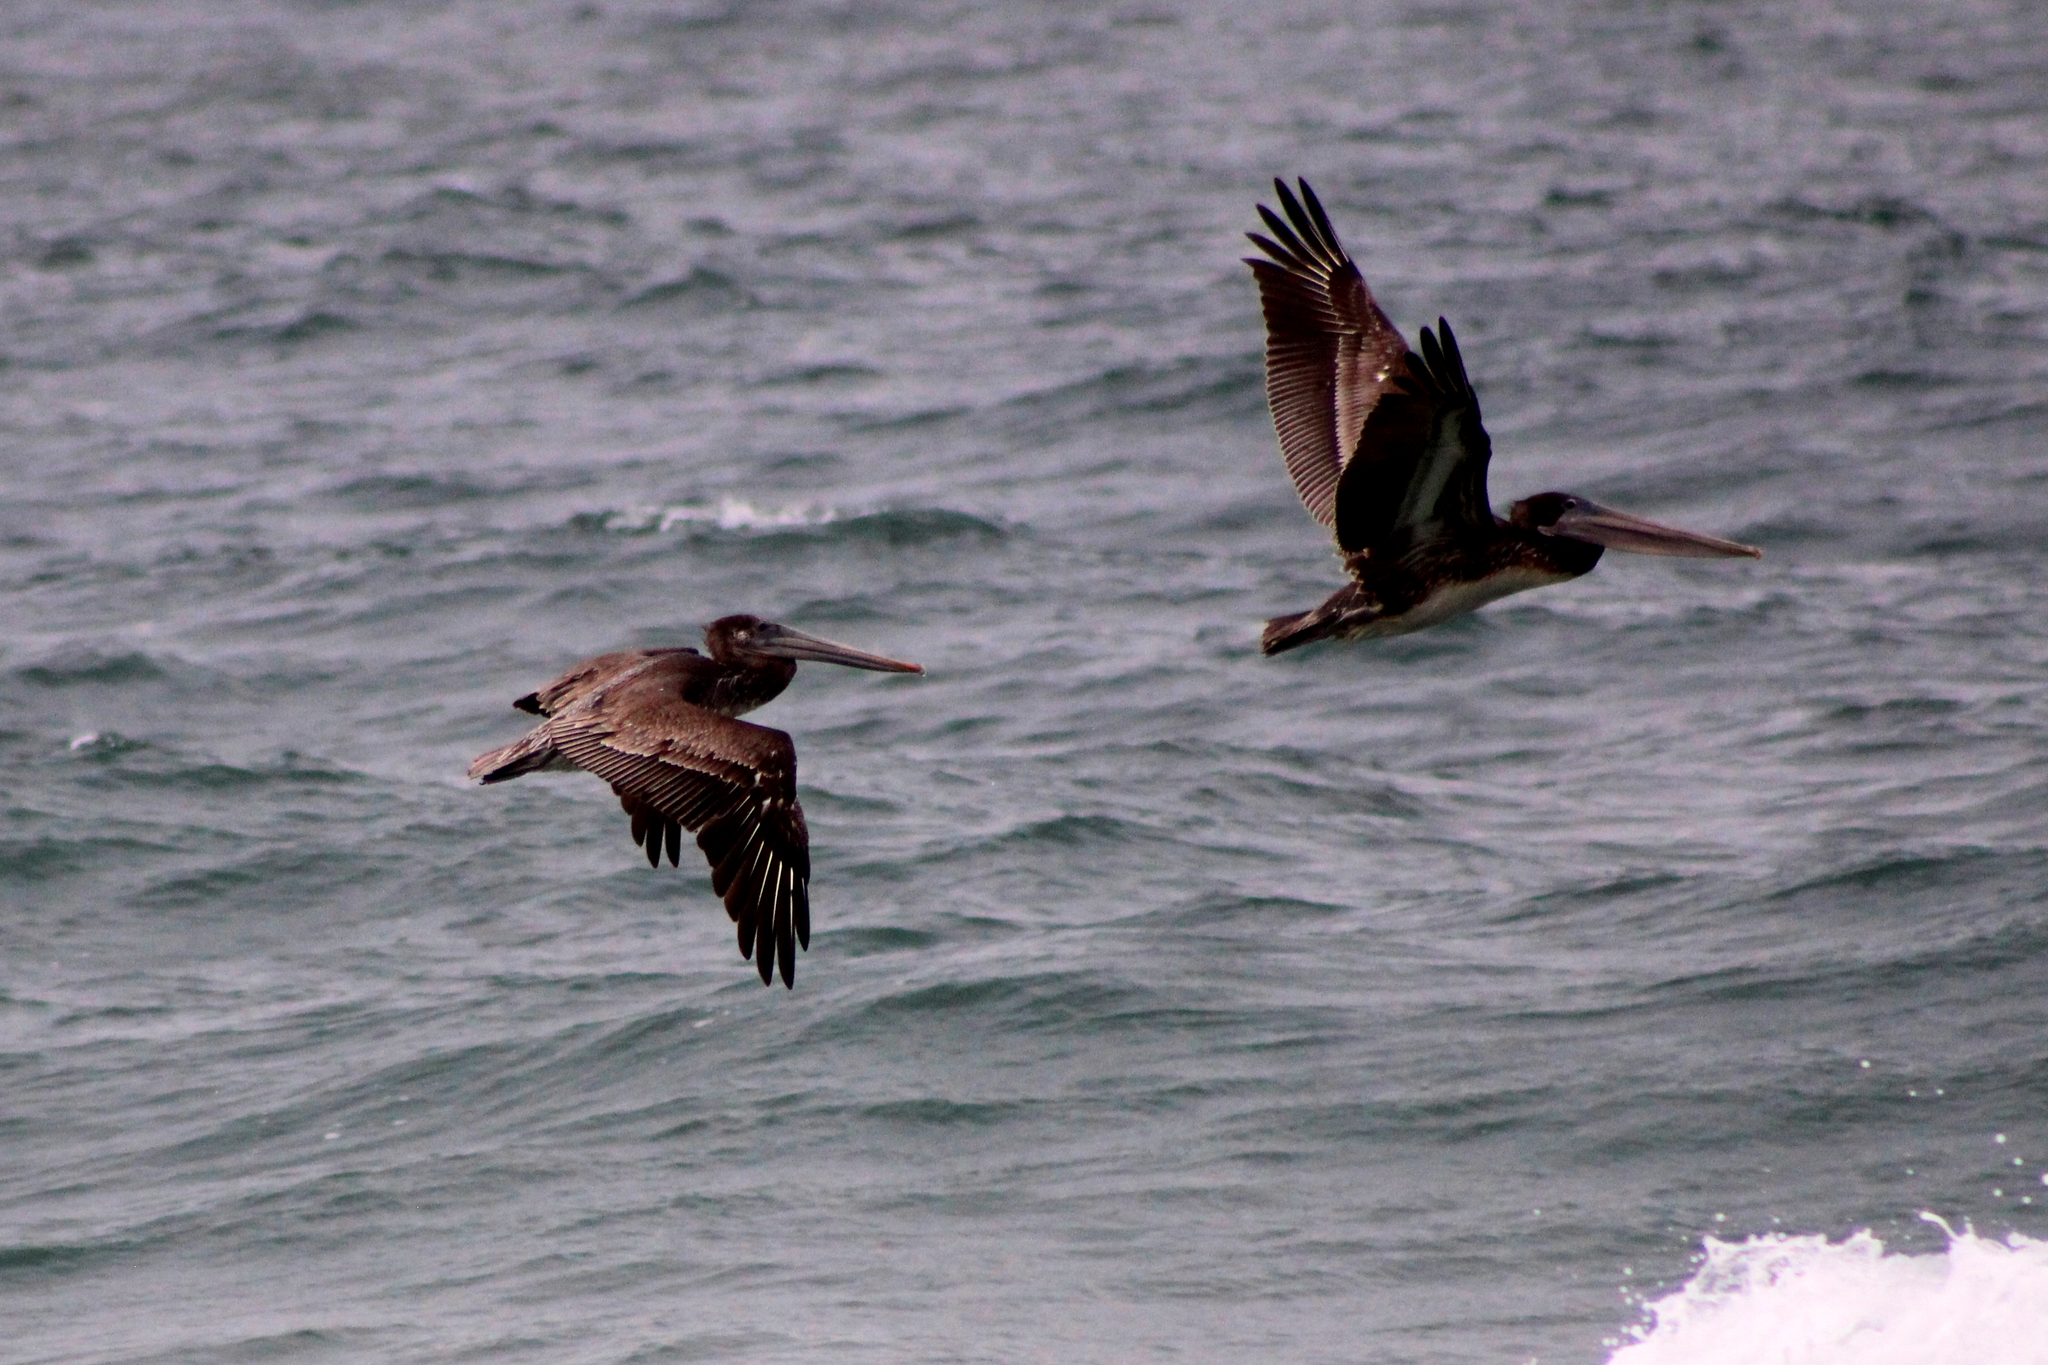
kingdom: Animalia
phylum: Chordata
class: Aves
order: Pelecaniformes
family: Pelecanidae
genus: Pelecanus
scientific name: Pelecanus occidentalis
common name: Brown pelican
